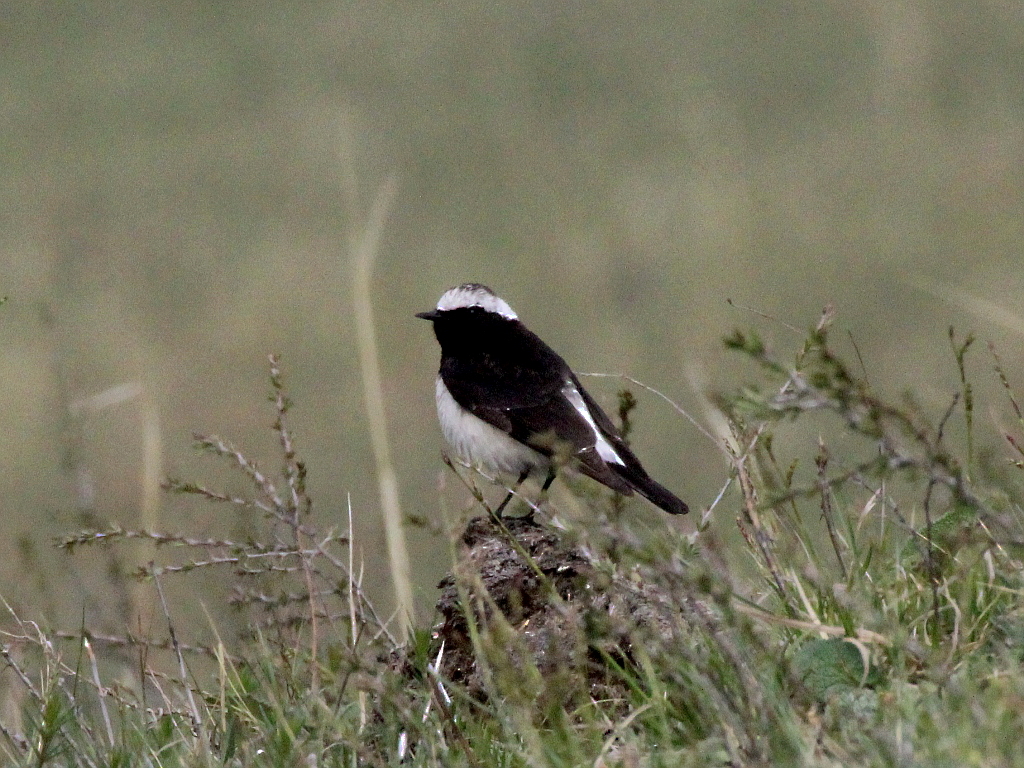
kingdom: Animalia
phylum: Chordata
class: Aves
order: Passeriformes
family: Muscicapidae
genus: Oenanthe
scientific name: Oenanthe pleschanka
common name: Pied wheatear
